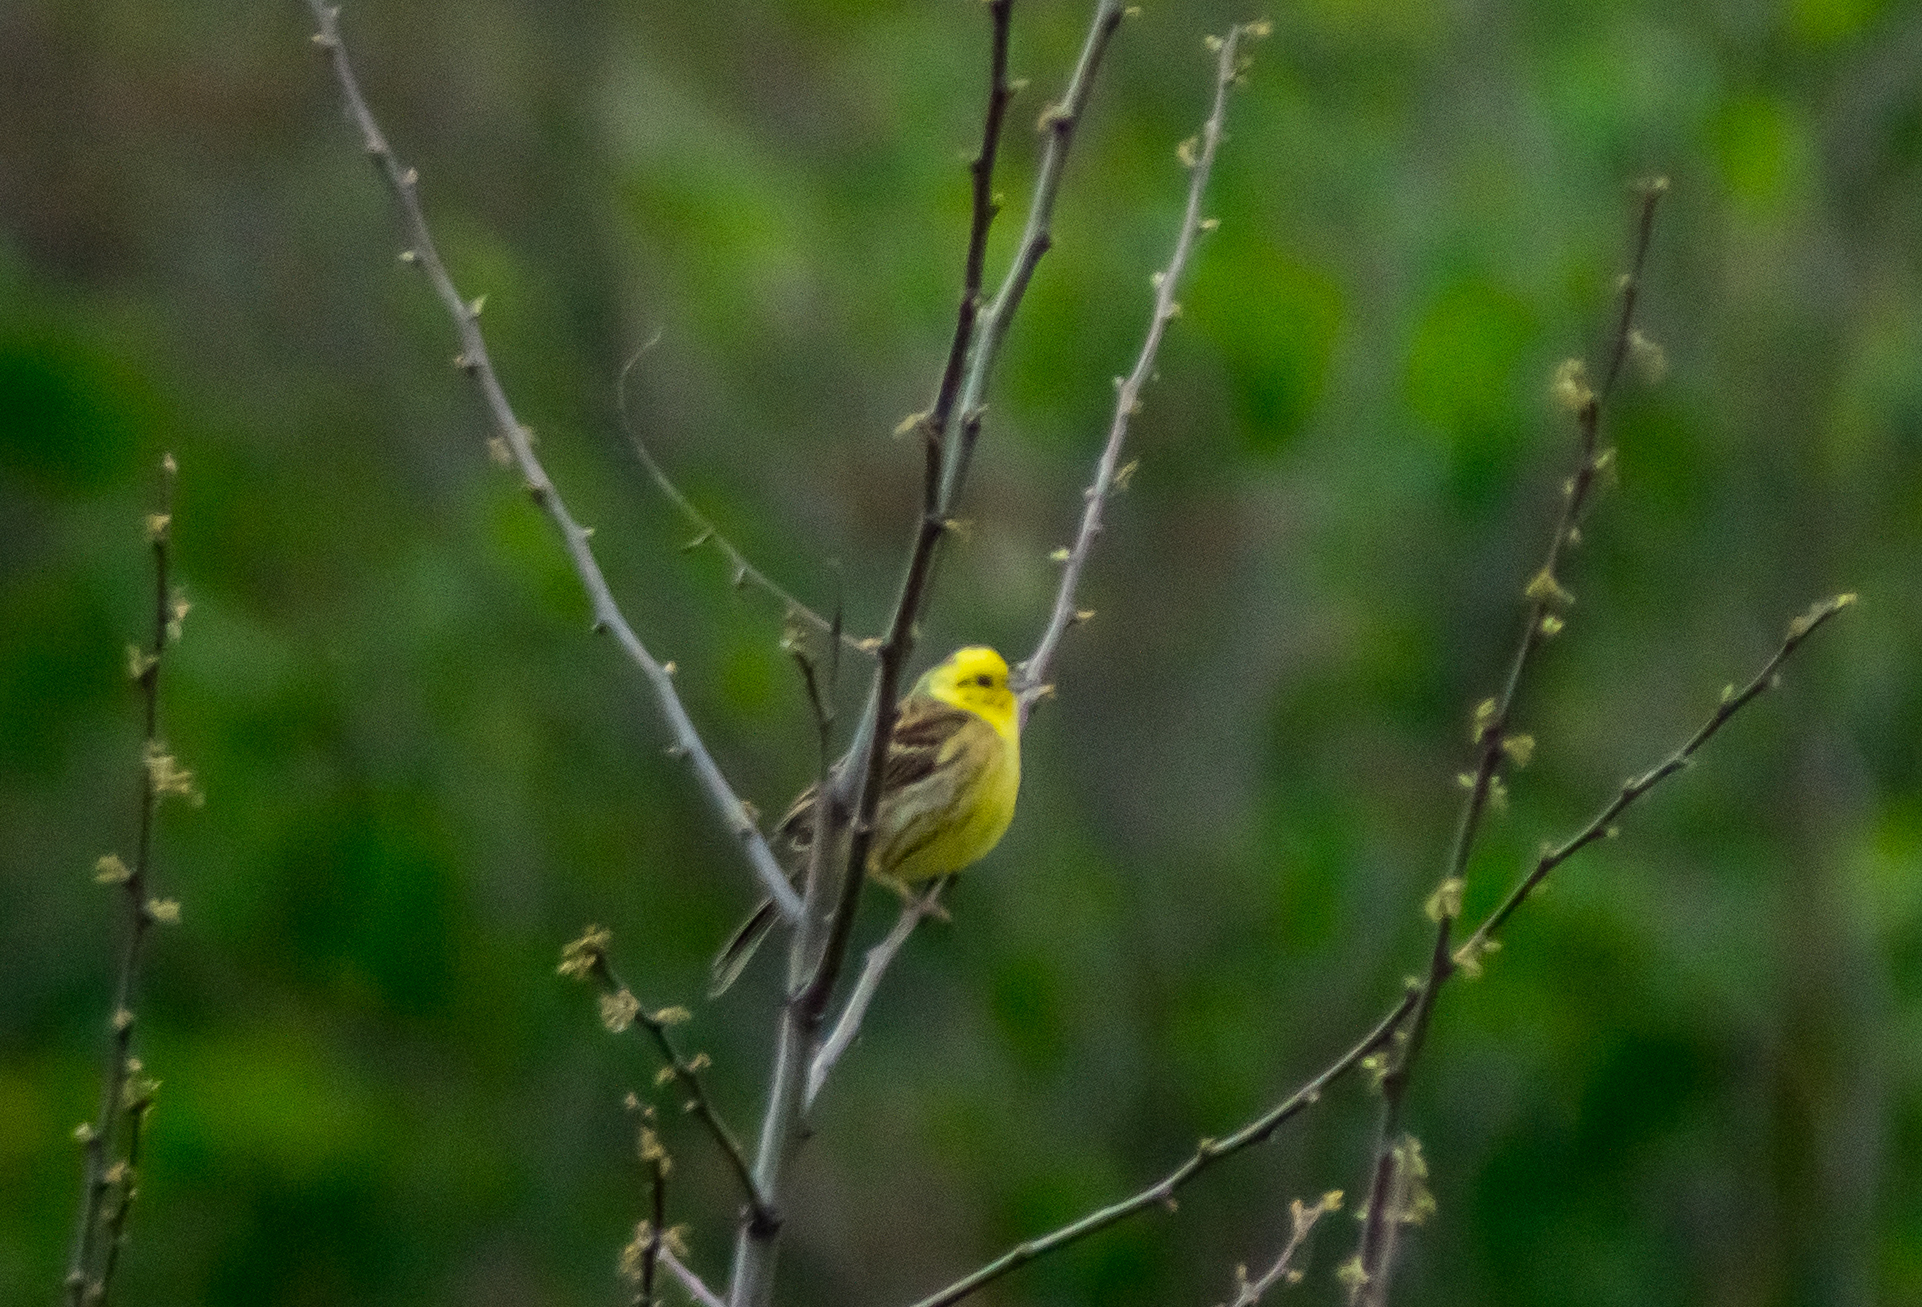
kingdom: Animalia
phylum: Chordata
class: Aves
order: Passeriformes
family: Emberizidae
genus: Emberiza
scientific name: Emberiza citrinella
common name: Yellowhammer
